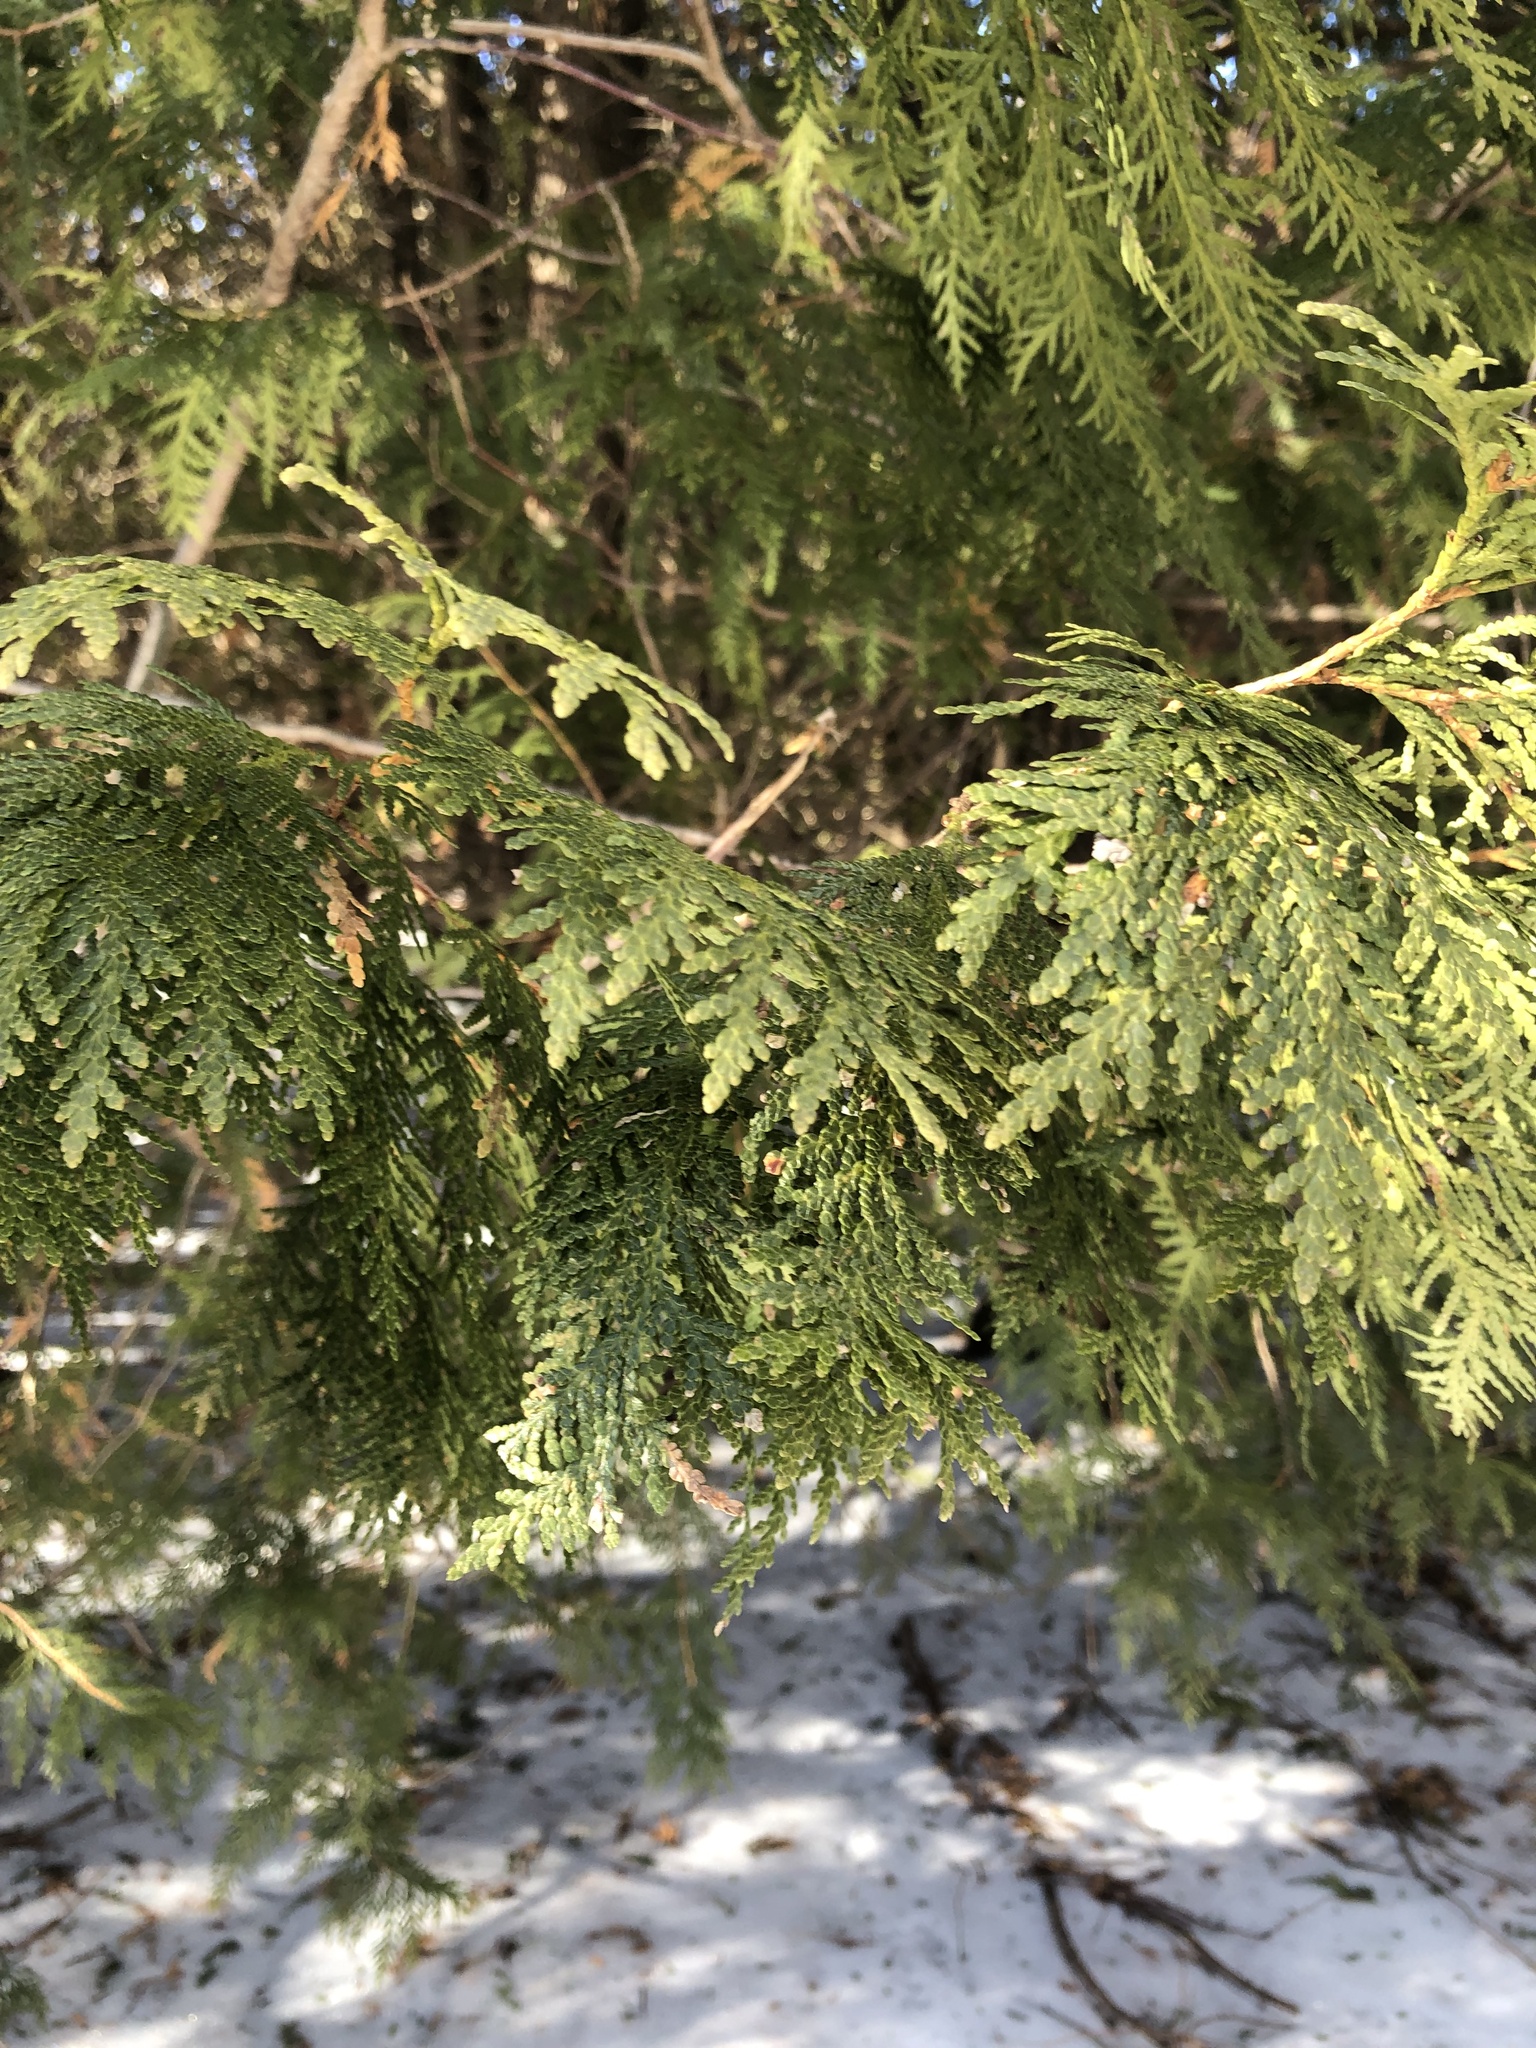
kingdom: Plantae
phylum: Tracheophyta
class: Pinopsida
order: Pinales
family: Cupressaceae
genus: Thuja
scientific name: Thuja occidentalis
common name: Northern white-cedar
